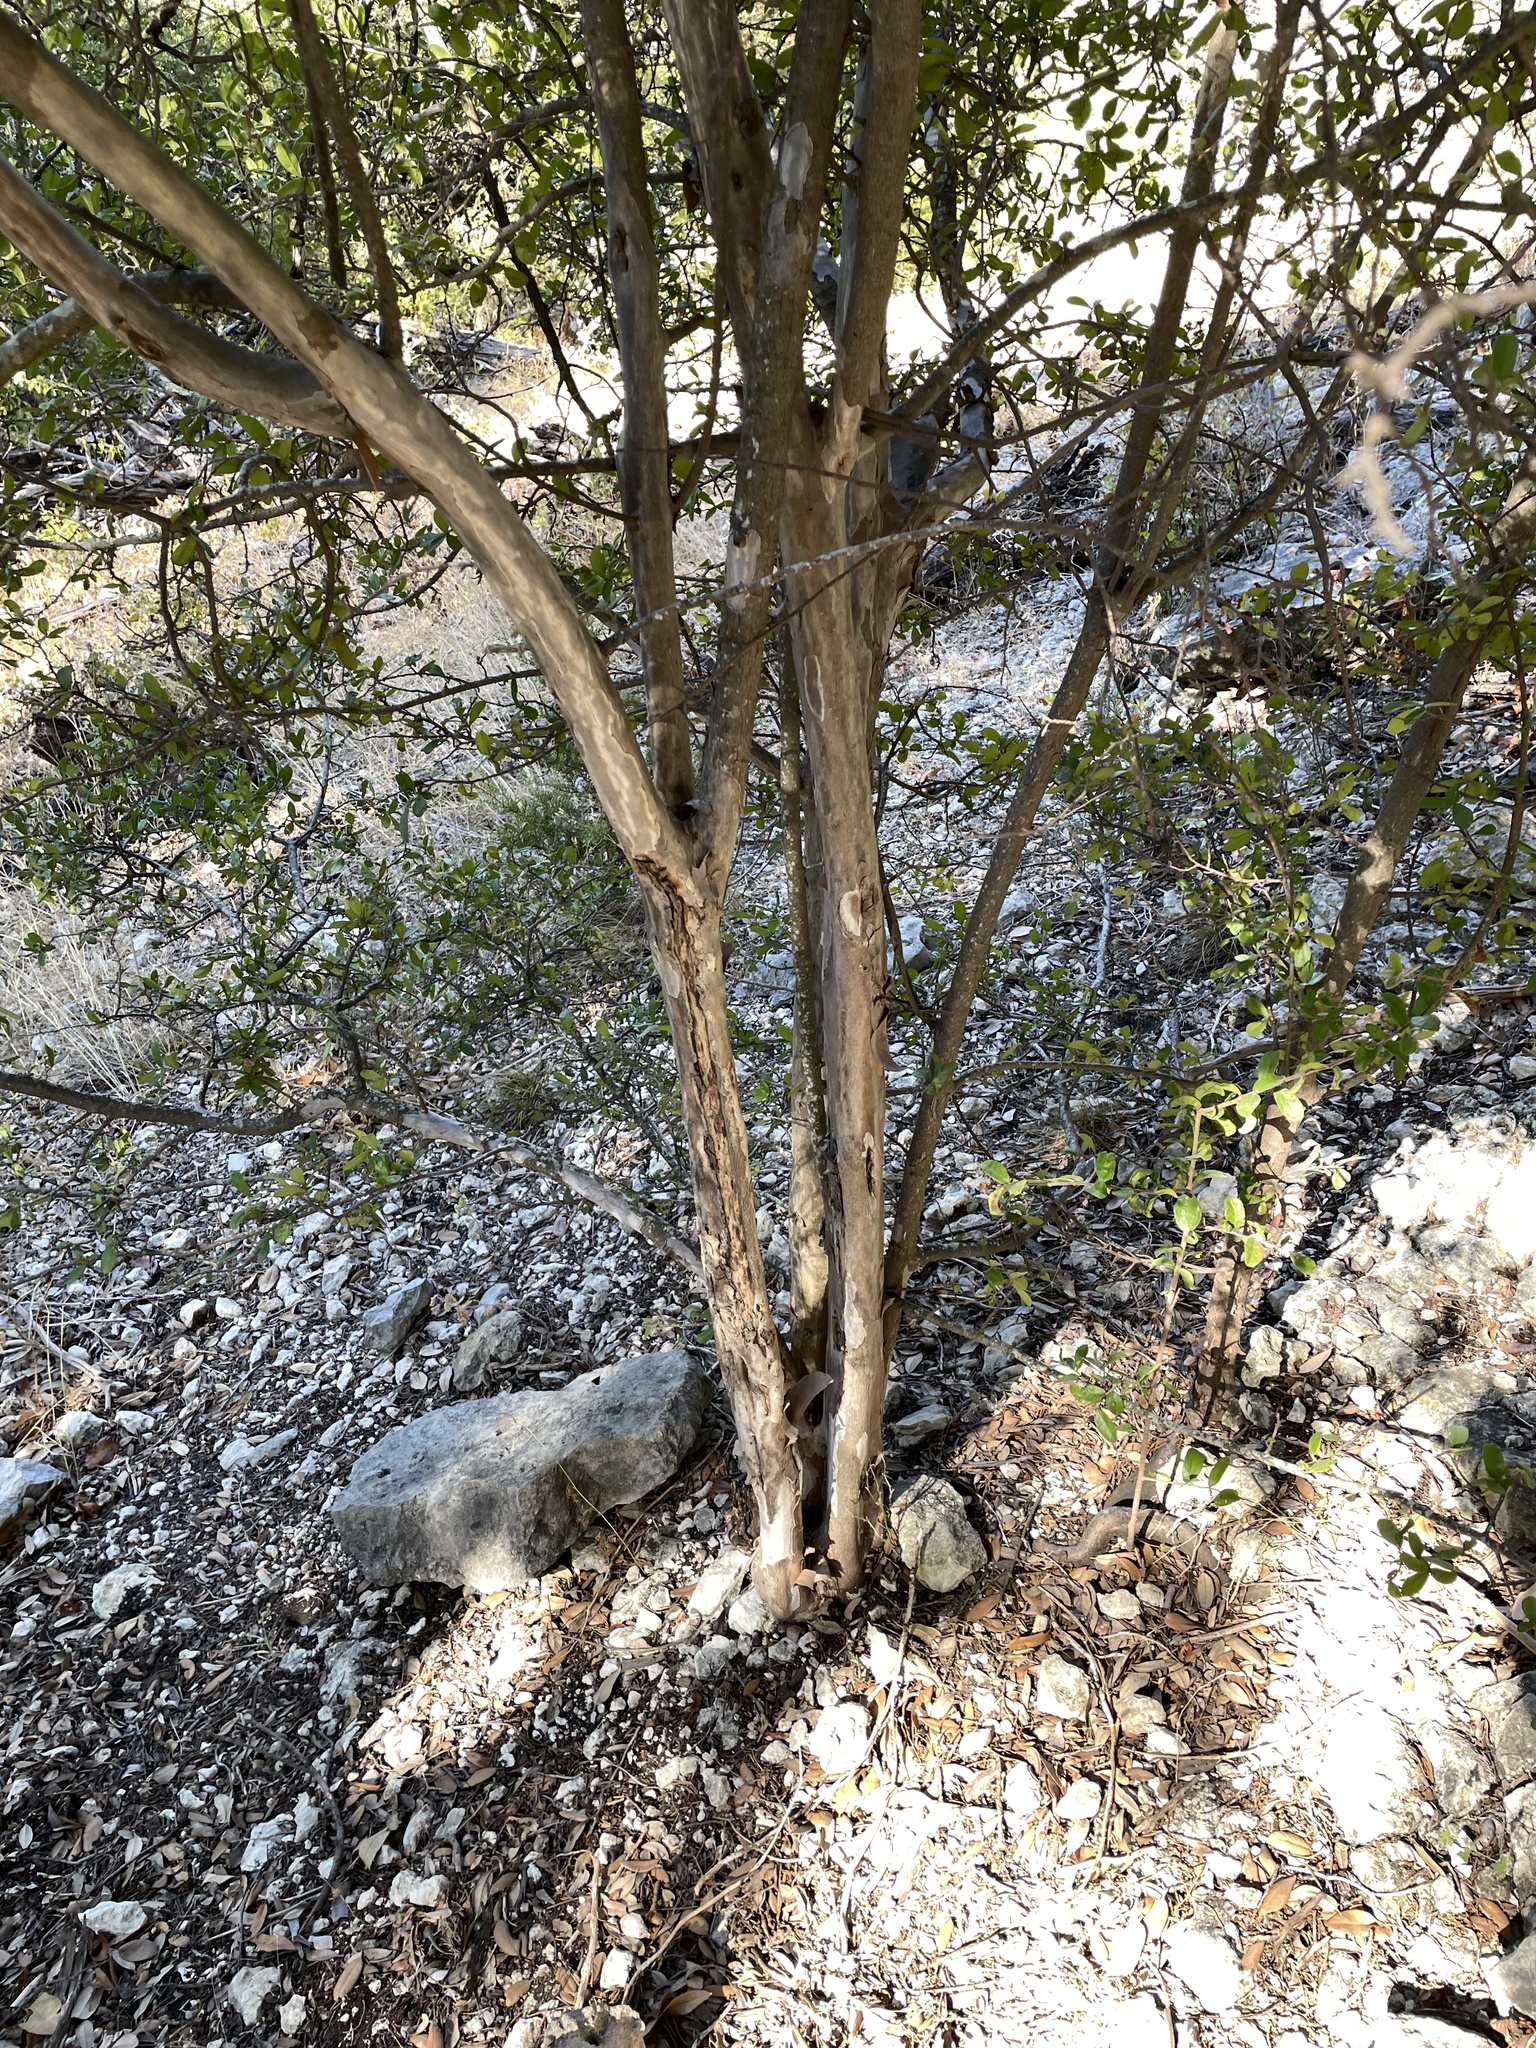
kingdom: Plantae
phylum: Tracheophyta
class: Magnoliopsida
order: Ericales
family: Ebenaceae
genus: Diospyros
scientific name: Diospyros texana
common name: Texas persimmon
